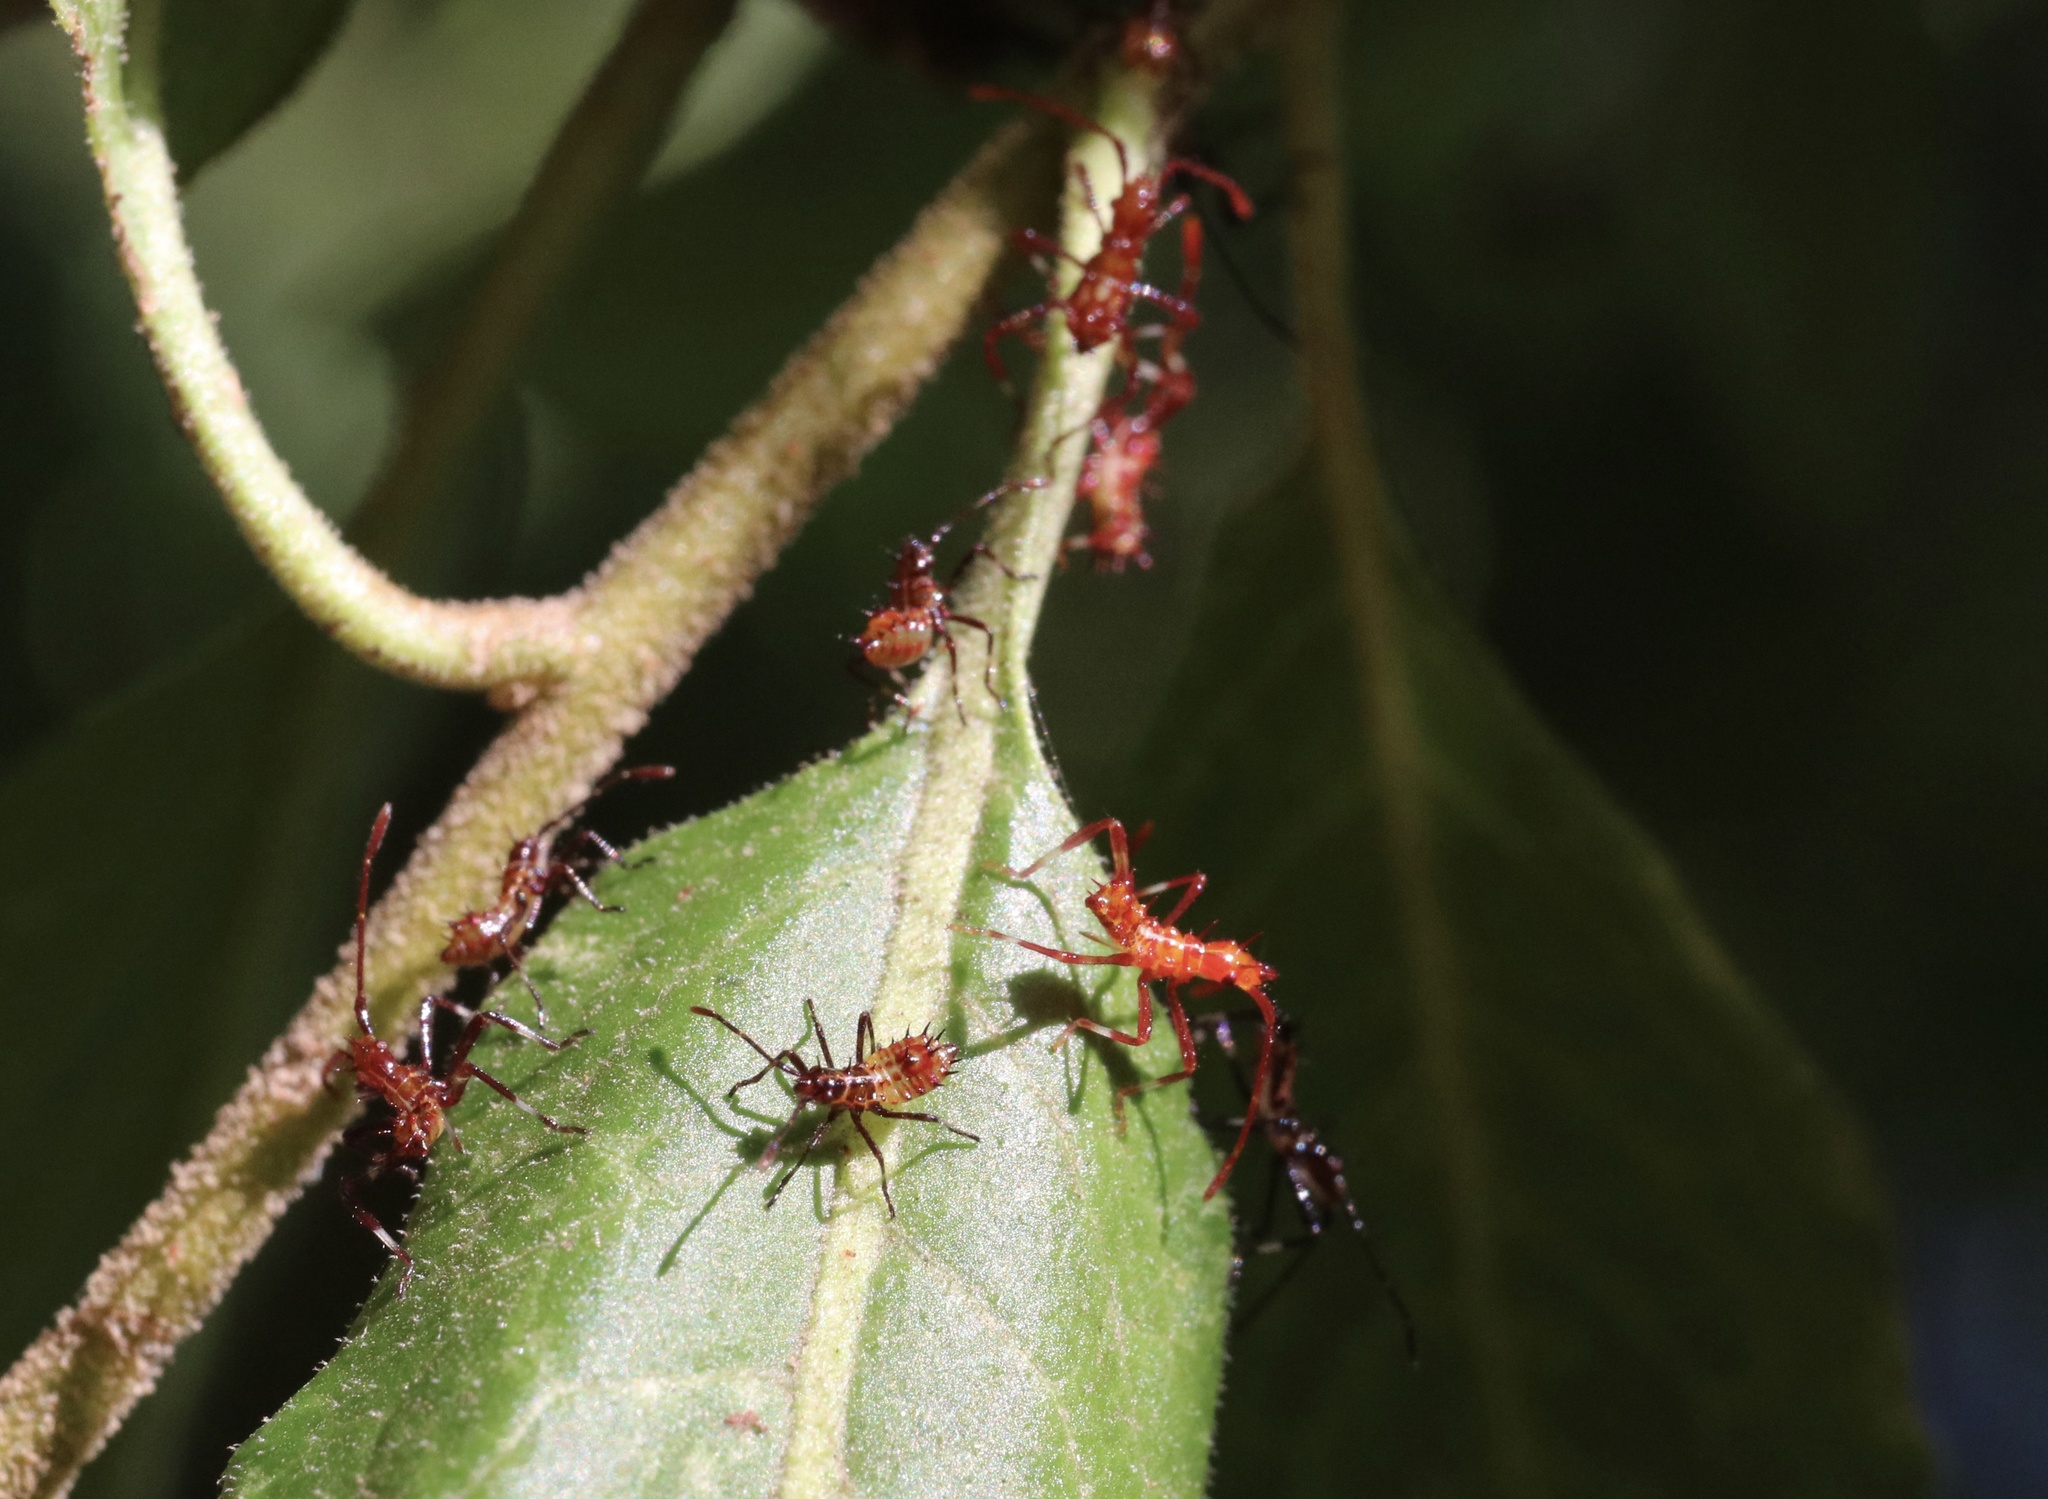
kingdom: Animalia
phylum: Arthropoda
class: Insecta
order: Hemiptera
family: Coreidae
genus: Leptoglossus
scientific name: Leptoglossus chilensis
